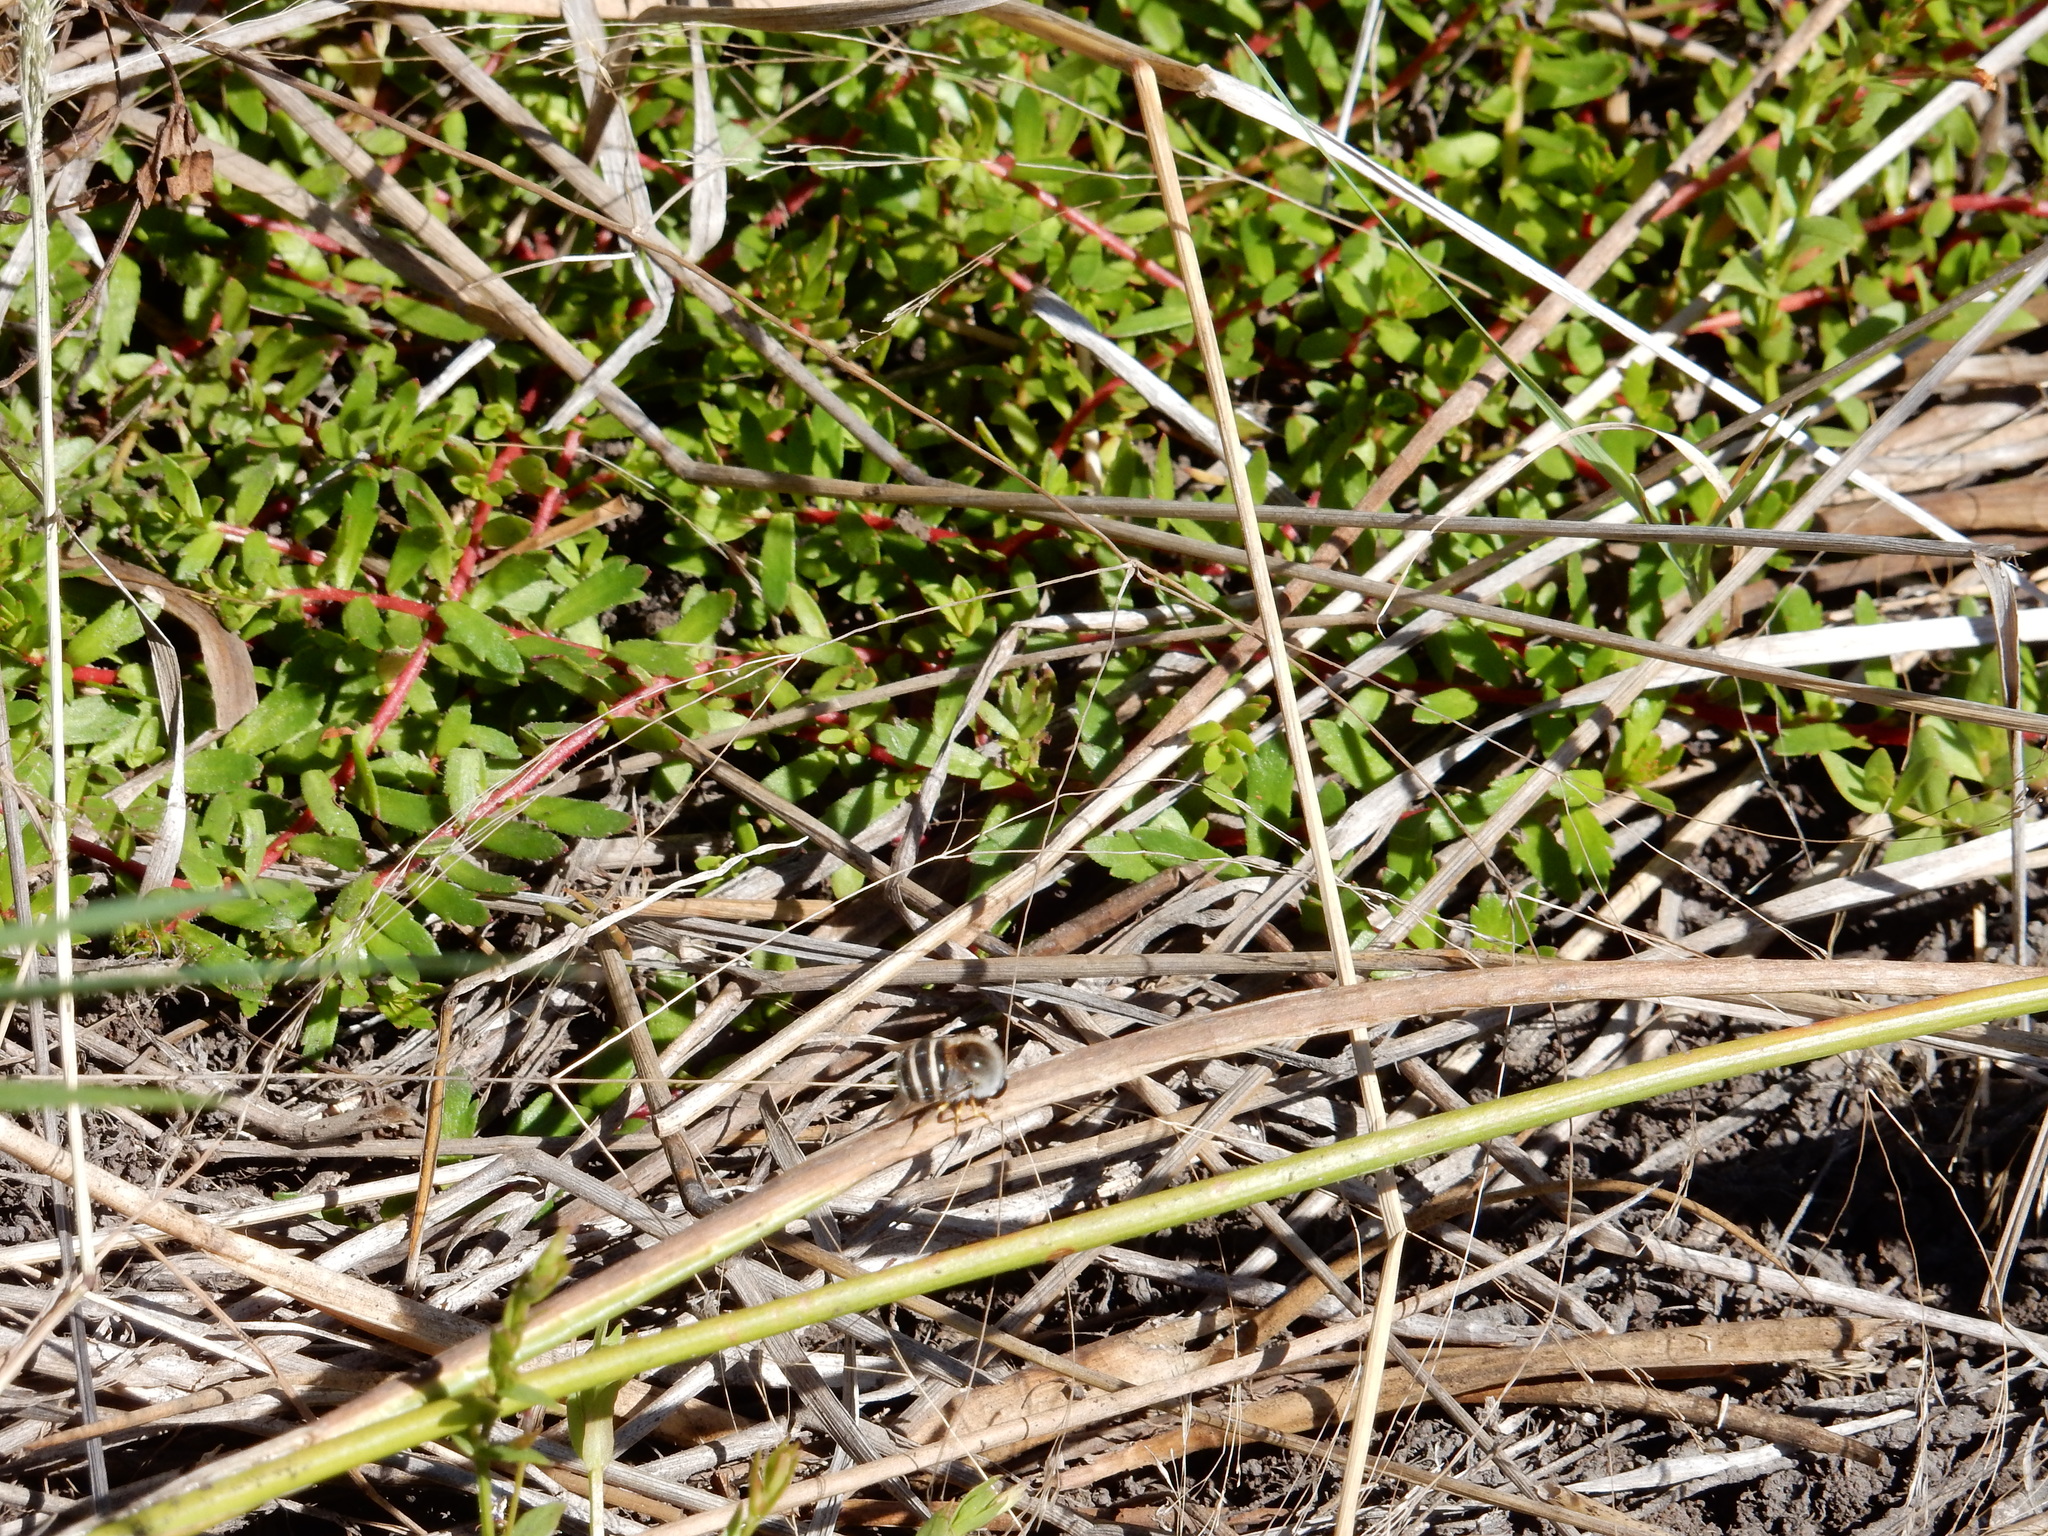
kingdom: Animalia
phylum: Arthropoda
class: Insecta
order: Diptera
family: Acroceridae
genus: Psilodera
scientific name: Psilodera fasciata
